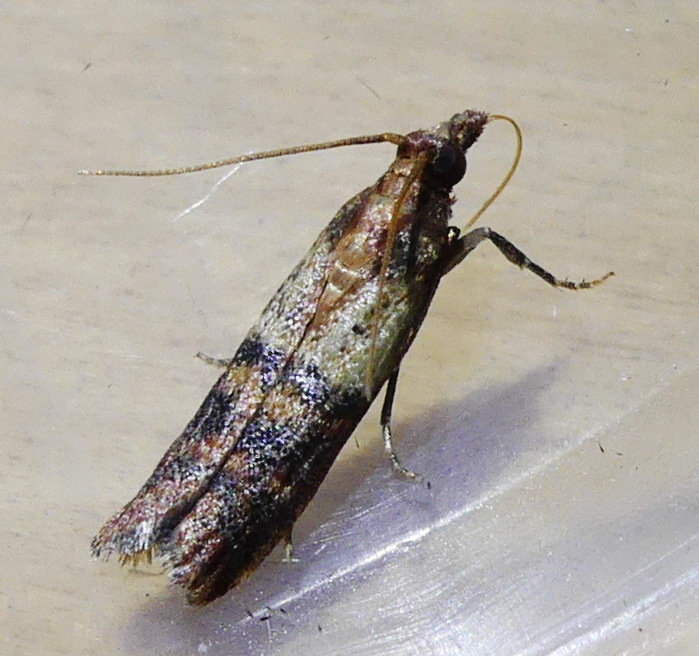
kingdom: Animalia
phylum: Arthropoda
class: Insecta
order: Lepidoptera
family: Pyralidae
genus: Plodia
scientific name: Plodia interpunctella
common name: Indian meal moth
